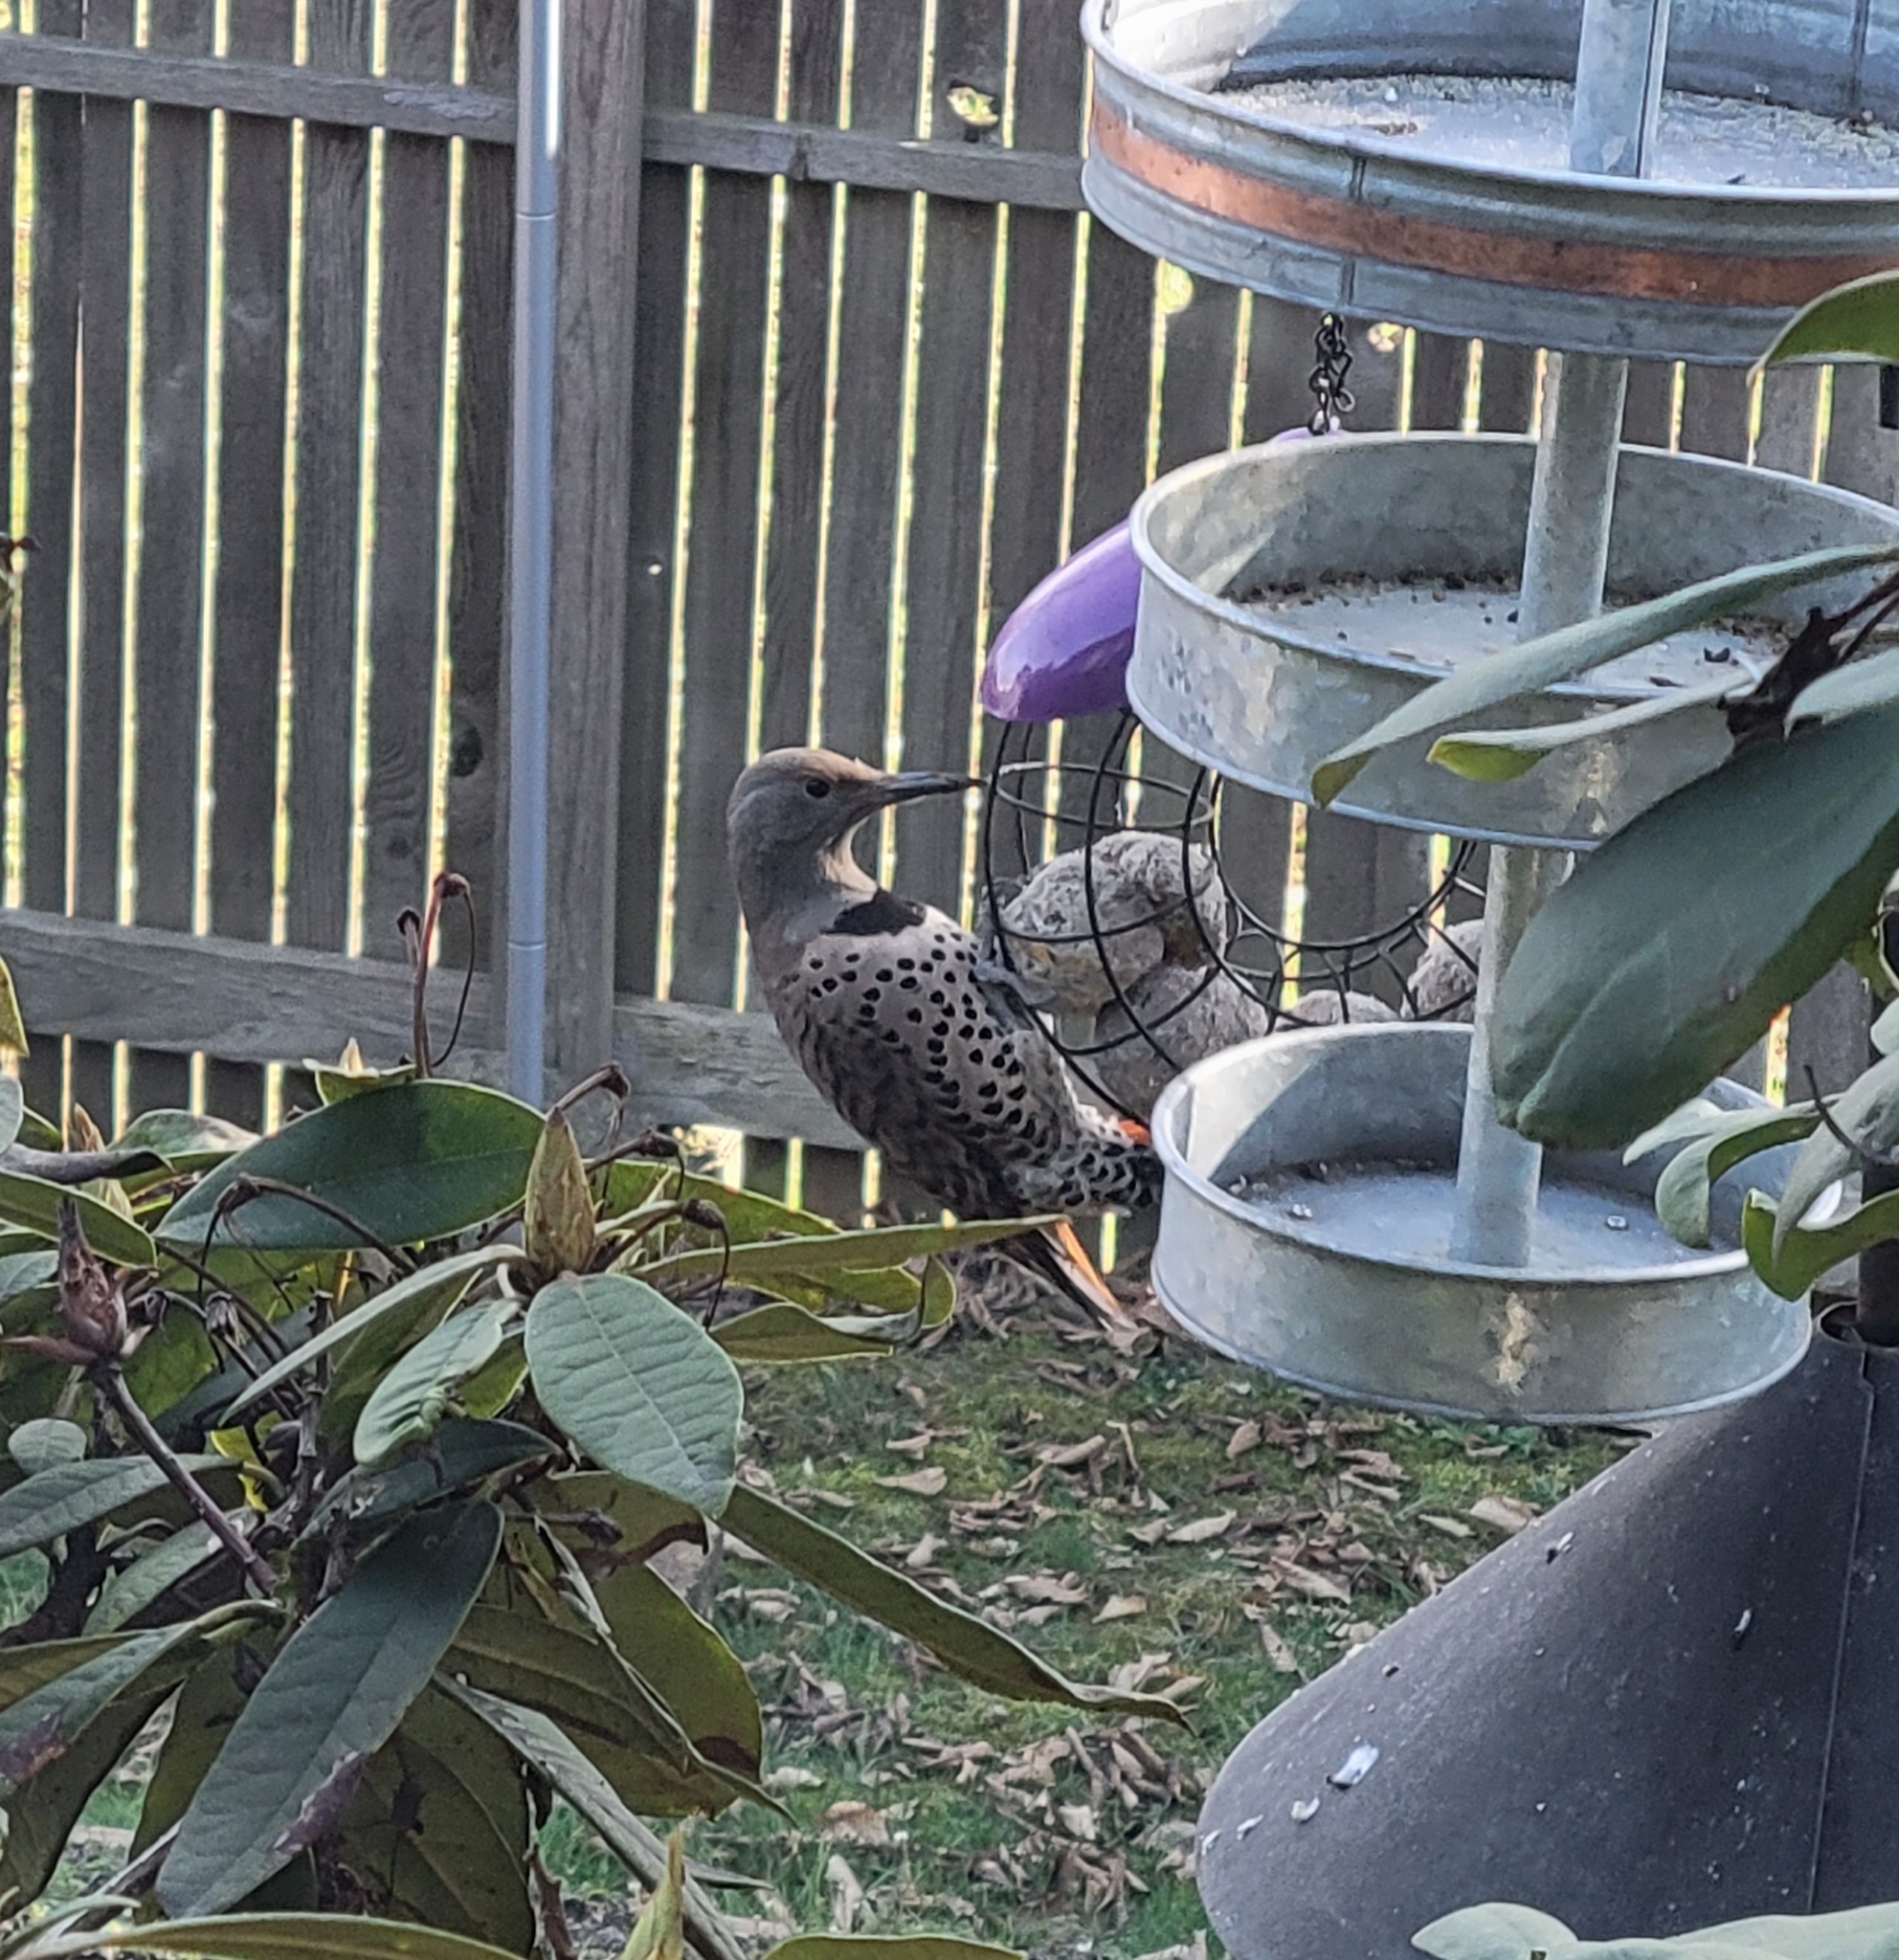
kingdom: Animalia
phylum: Chordata
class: Aves
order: Piciformes
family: Picidae
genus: Colaptes
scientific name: Colaptes auratus
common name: Northern flicker
